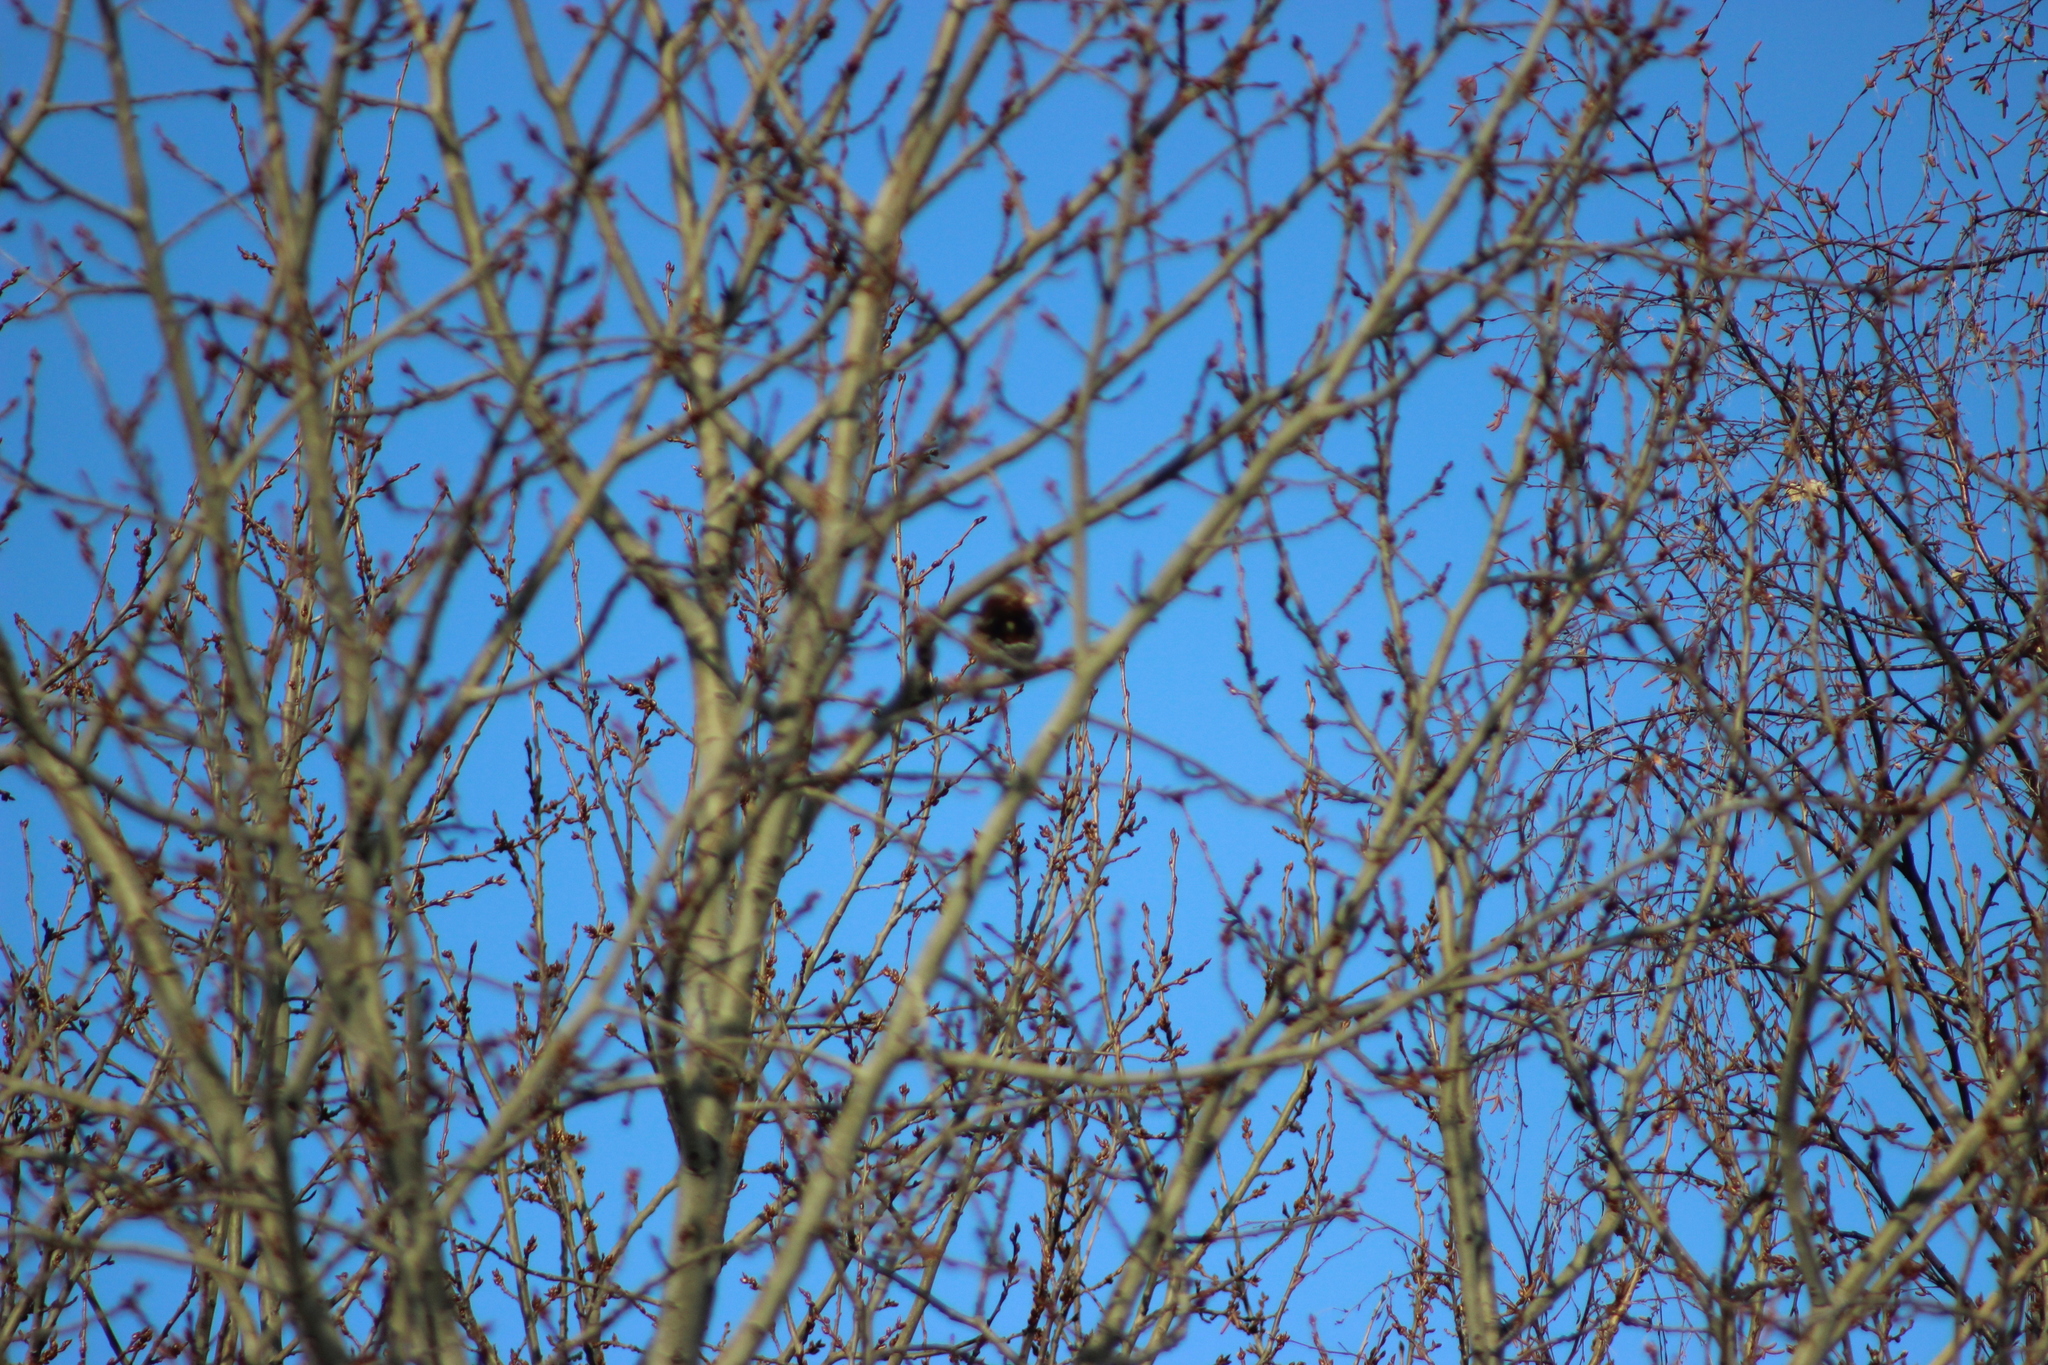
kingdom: Animalia
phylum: Chordata
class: Aves
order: Passeriformes
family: Fringillidae
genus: Coccothraustes
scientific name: Coccothraustes coccothraustes
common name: Hawfinch
